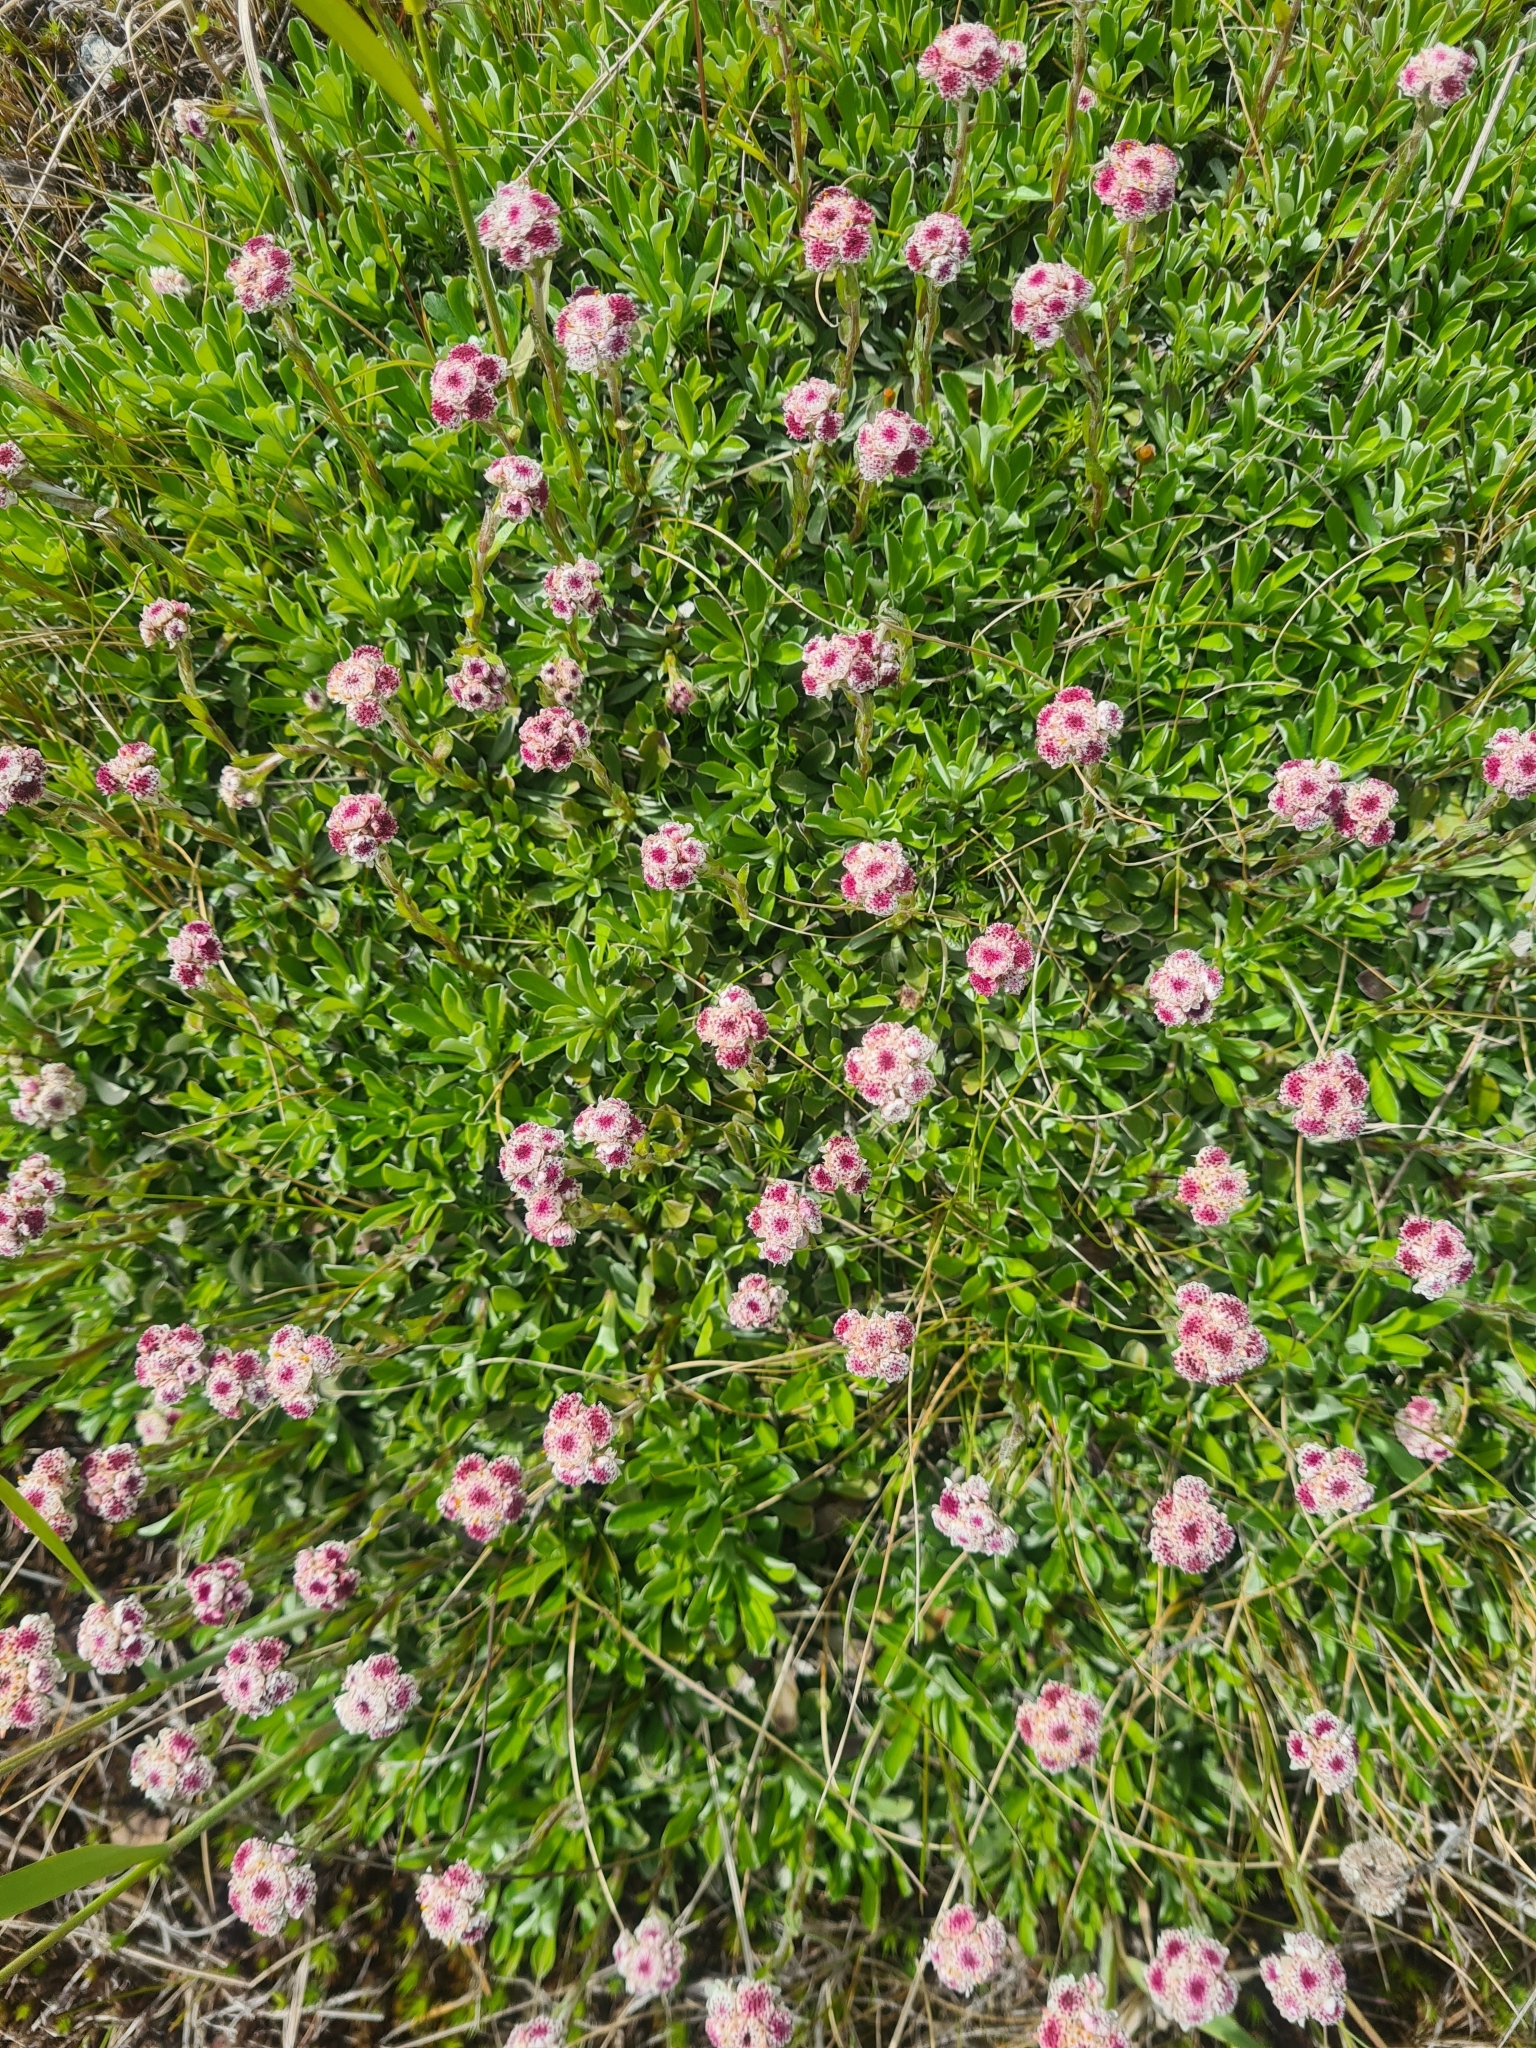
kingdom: Plantae
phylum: Tracheophyta
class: Magnoliopsida
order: Asterales
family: Asteraceae
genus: Antennaria
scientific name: Antennaria dioica
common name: Mountain everlasting
